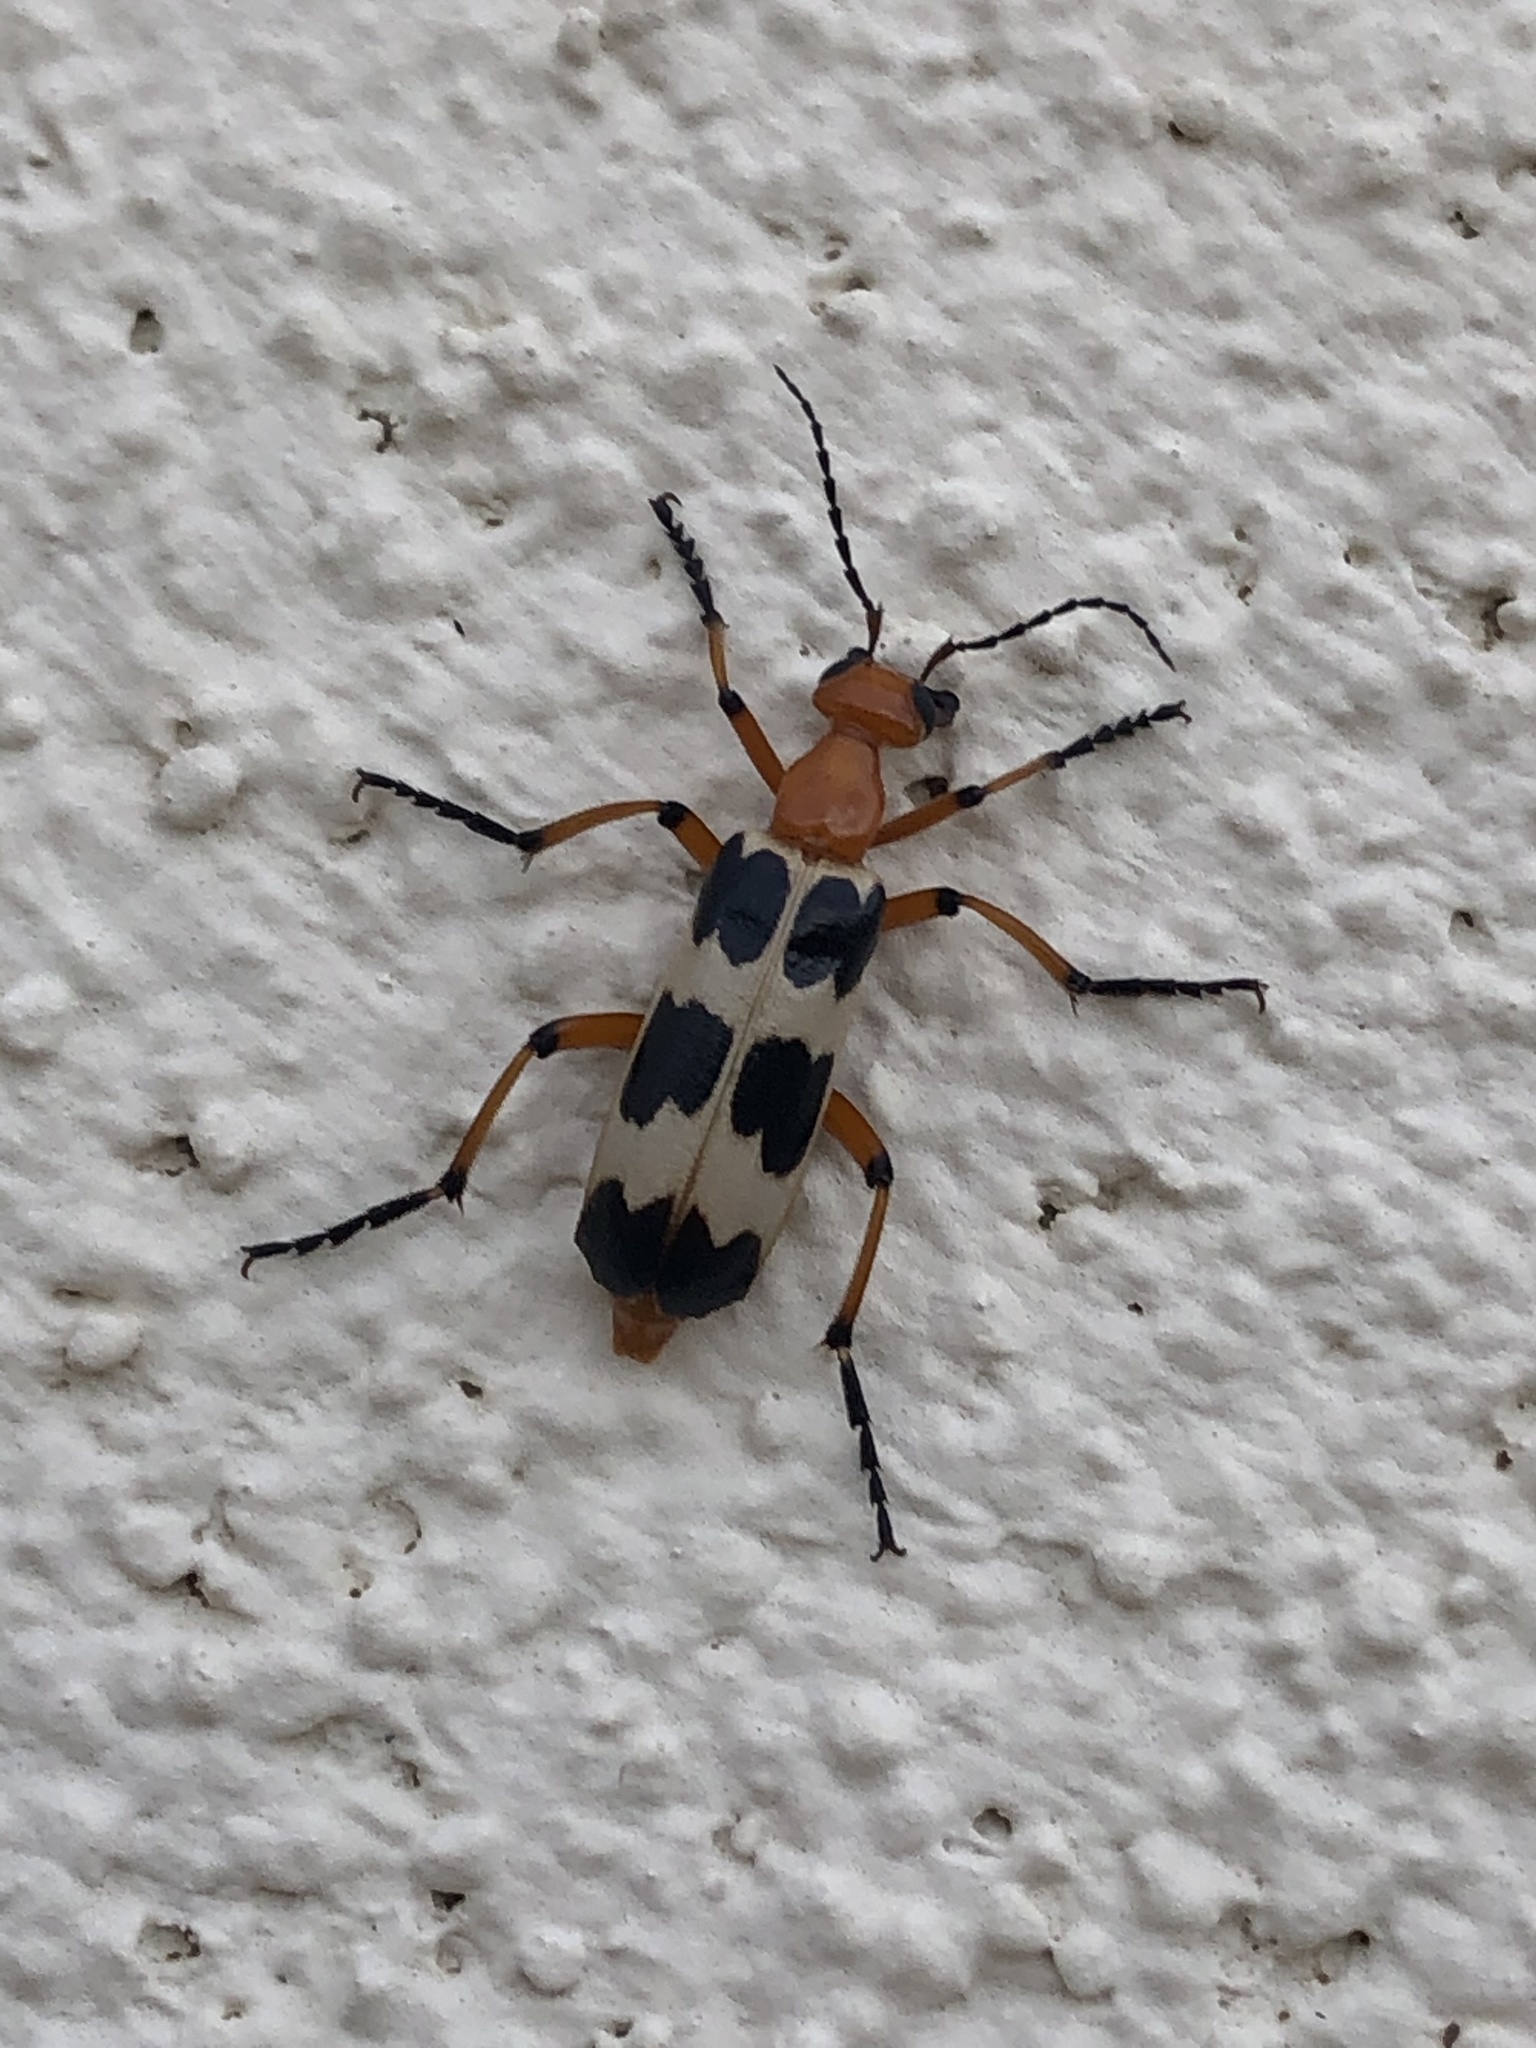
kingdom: Animalia
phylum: Arthropoda
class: Insecta
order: Coleoptera
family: Meloidae
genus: Pyrota
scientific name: Pyrota palpalis
